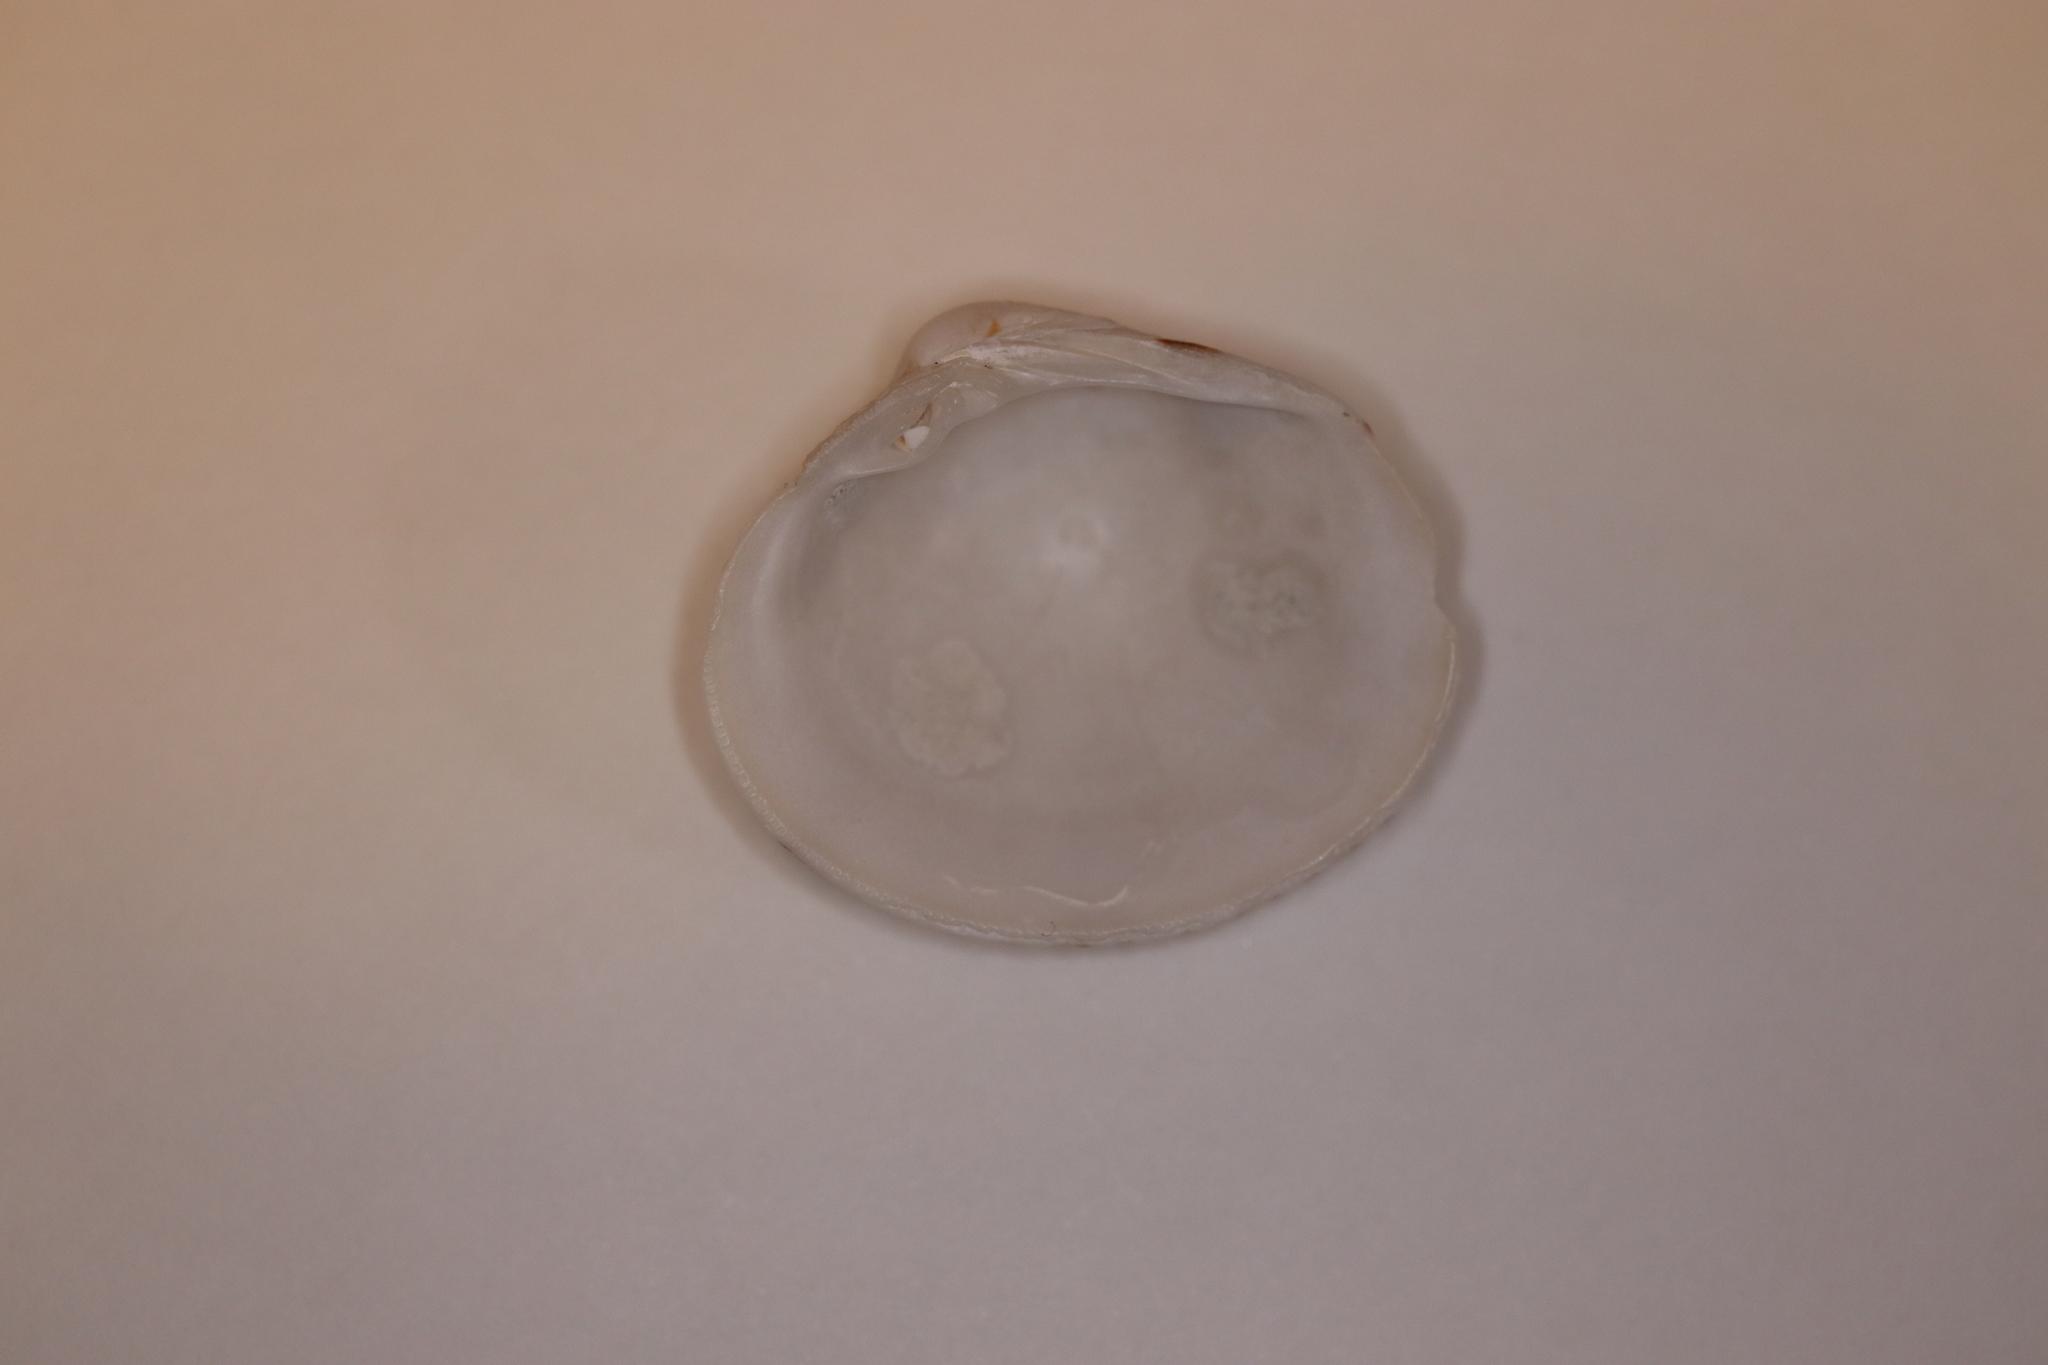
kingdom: Animalia
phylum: Mollusca
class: Bivalvia
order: Venerida
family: Veneridae
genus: Leukoma
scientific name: Leukoma jedoensis
